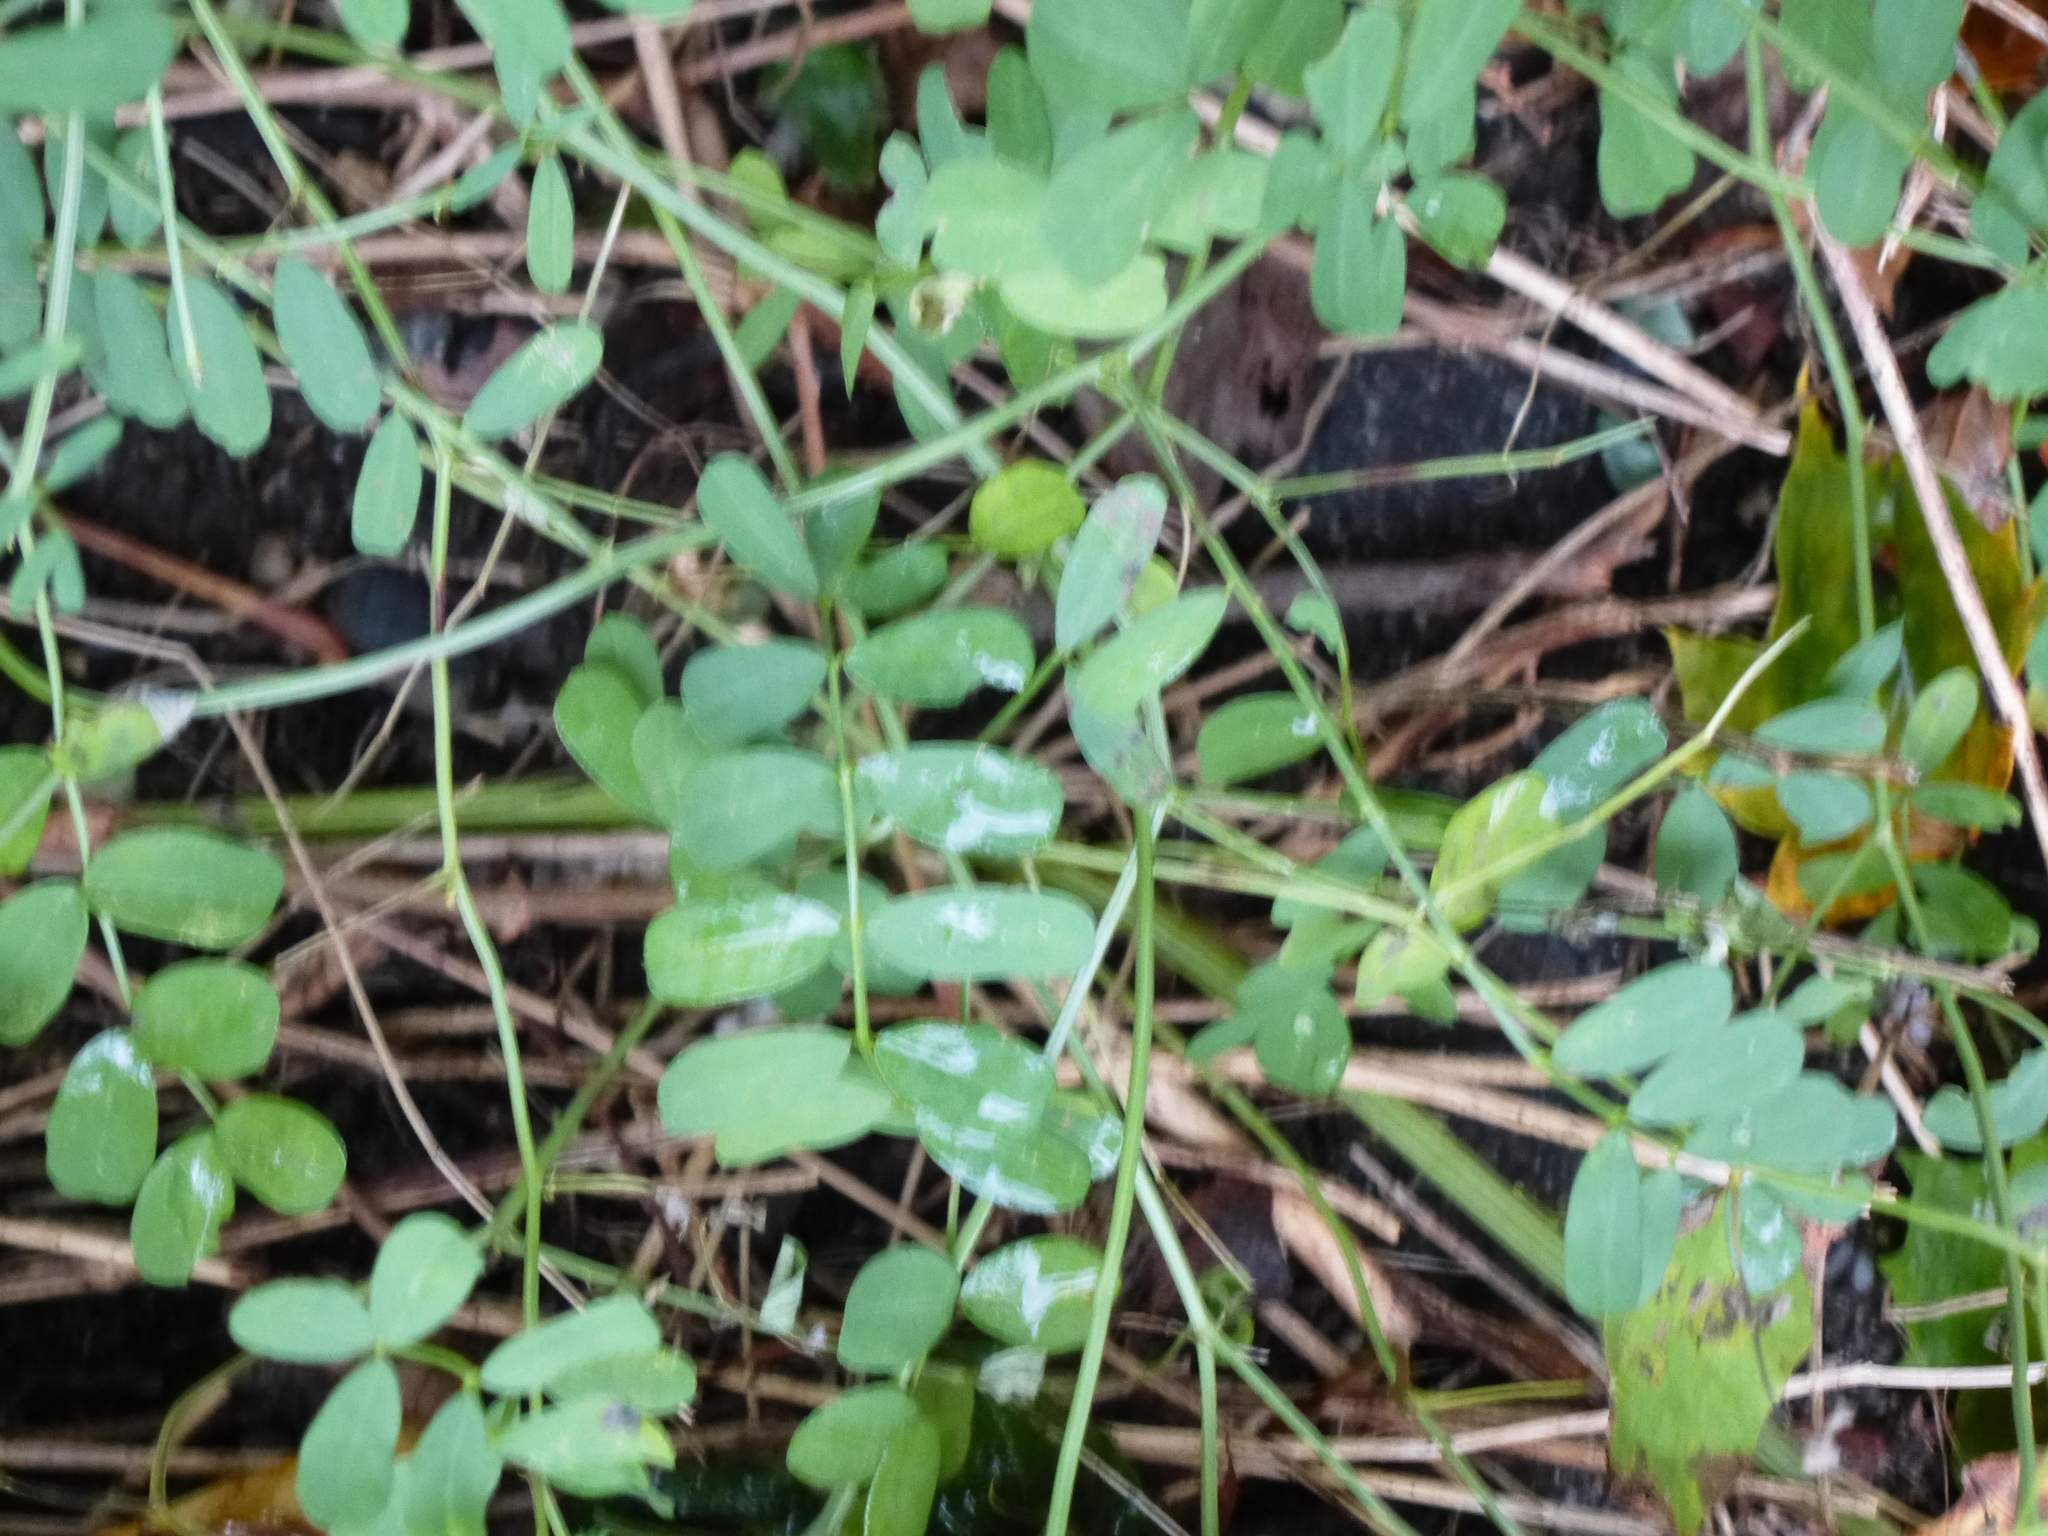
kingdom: Plantae
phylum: Tracheophyta
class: Magnoliopsida
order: Fabales
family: Fabaceae
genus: Coronilla
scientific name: Coronilla varia
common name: Crownvetch
